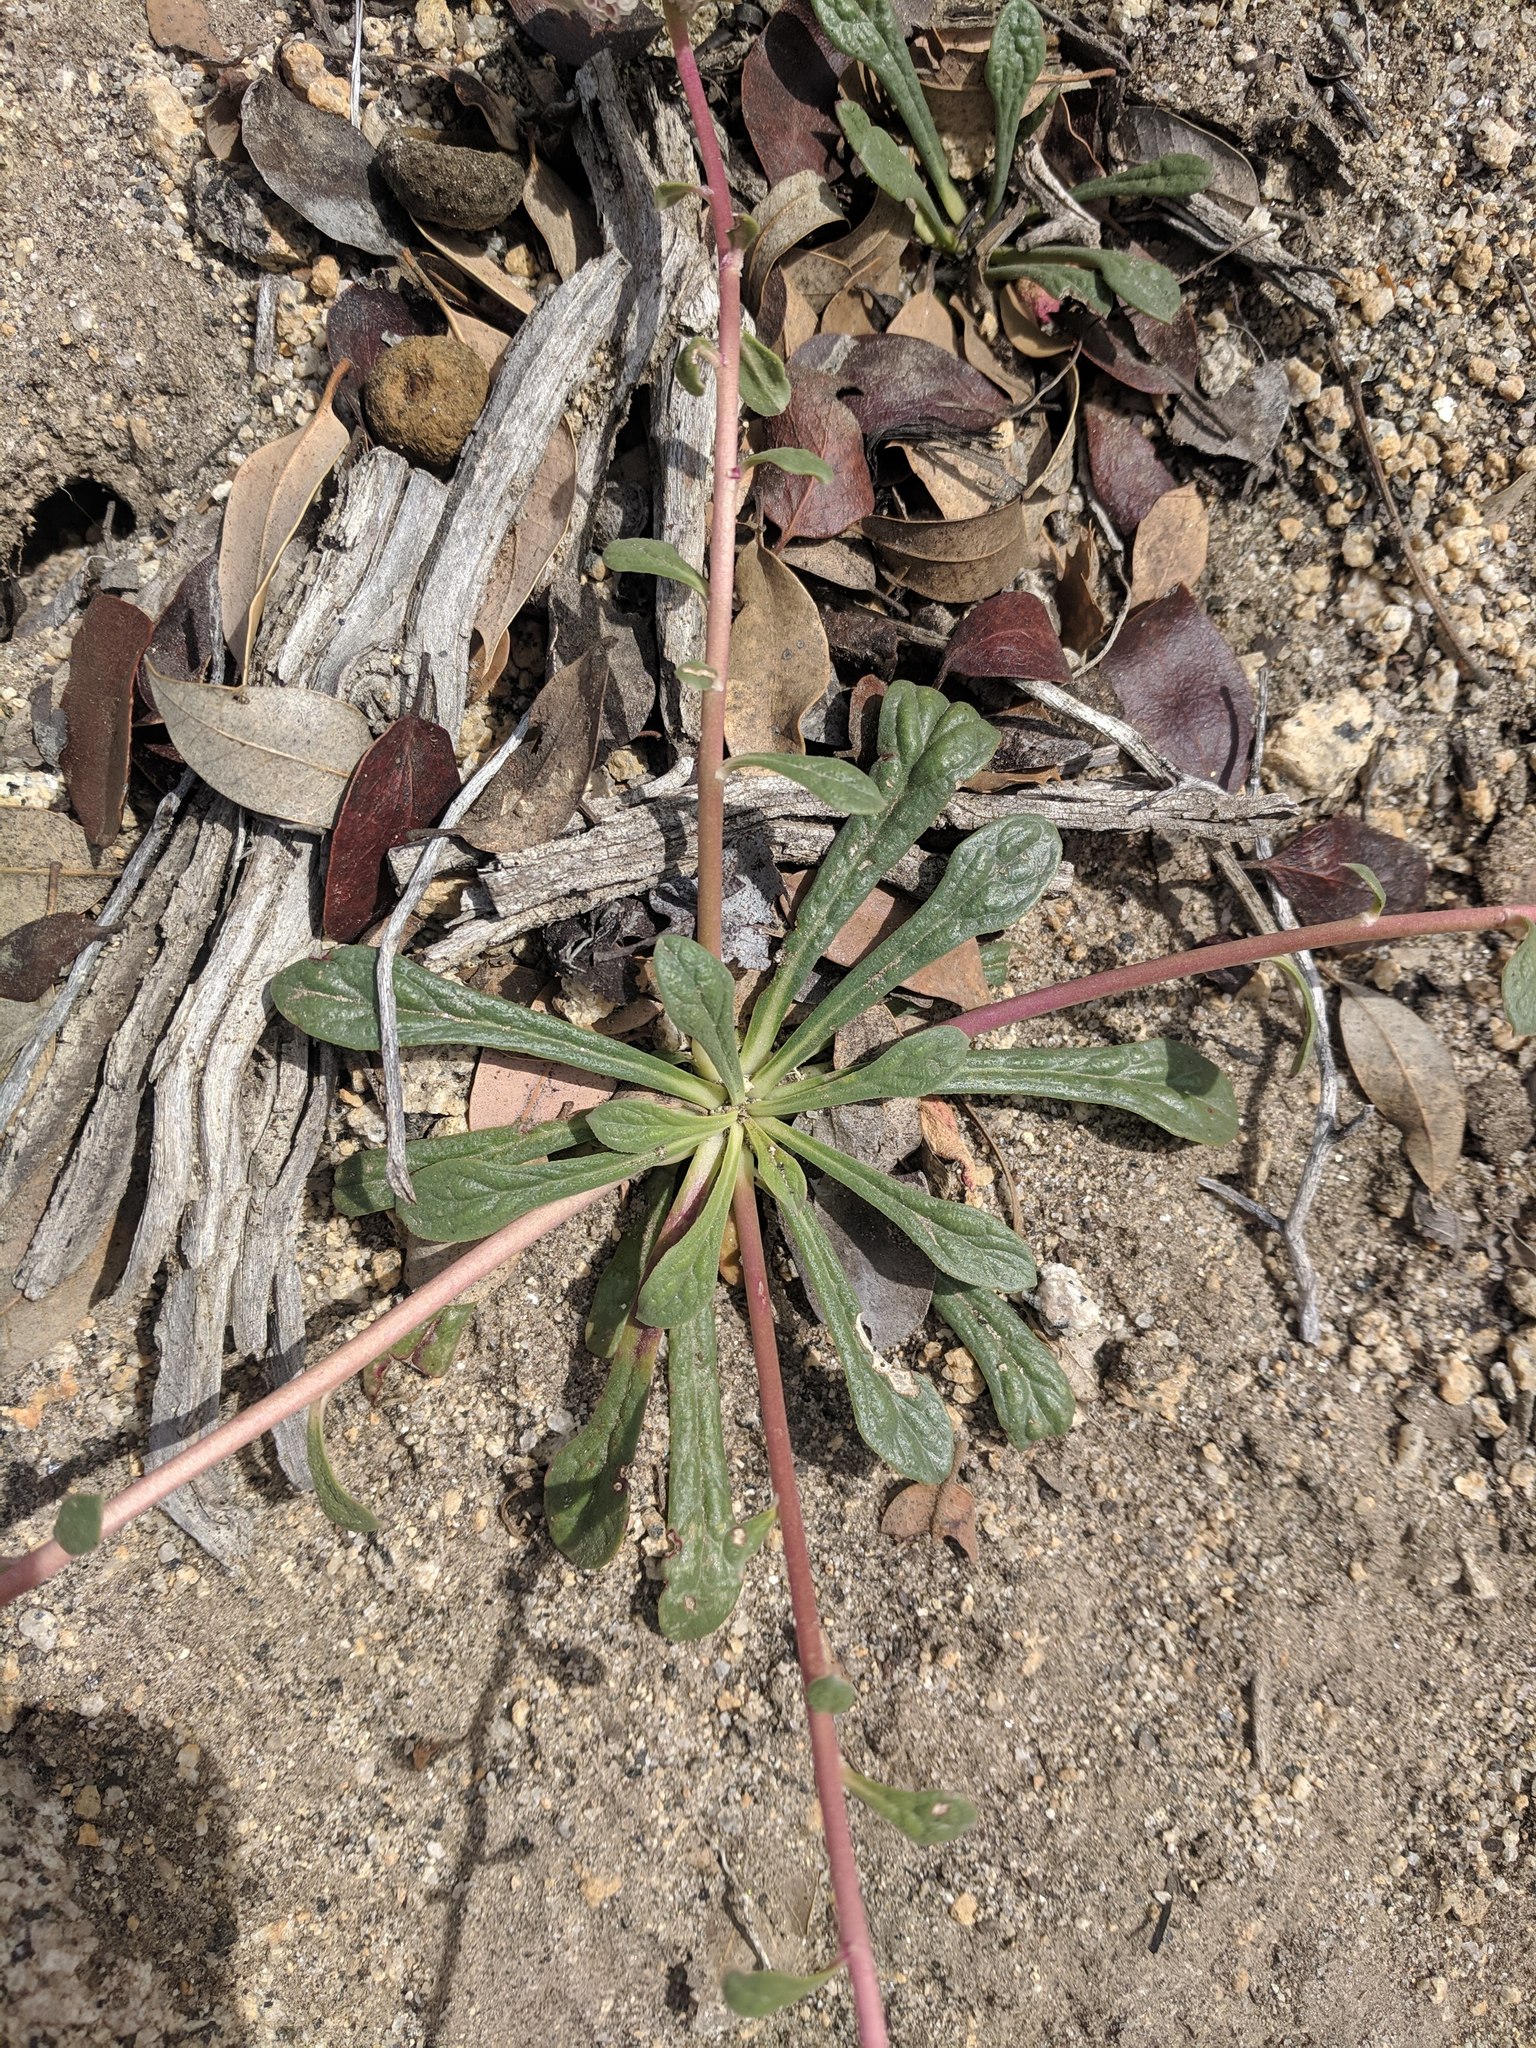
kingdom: Plantae
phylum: Tracheophyta
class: Magnoliopsida
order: Caryophyllales
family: Montiaceae
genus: Calyptridium
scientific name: Calyptridium monospermum
